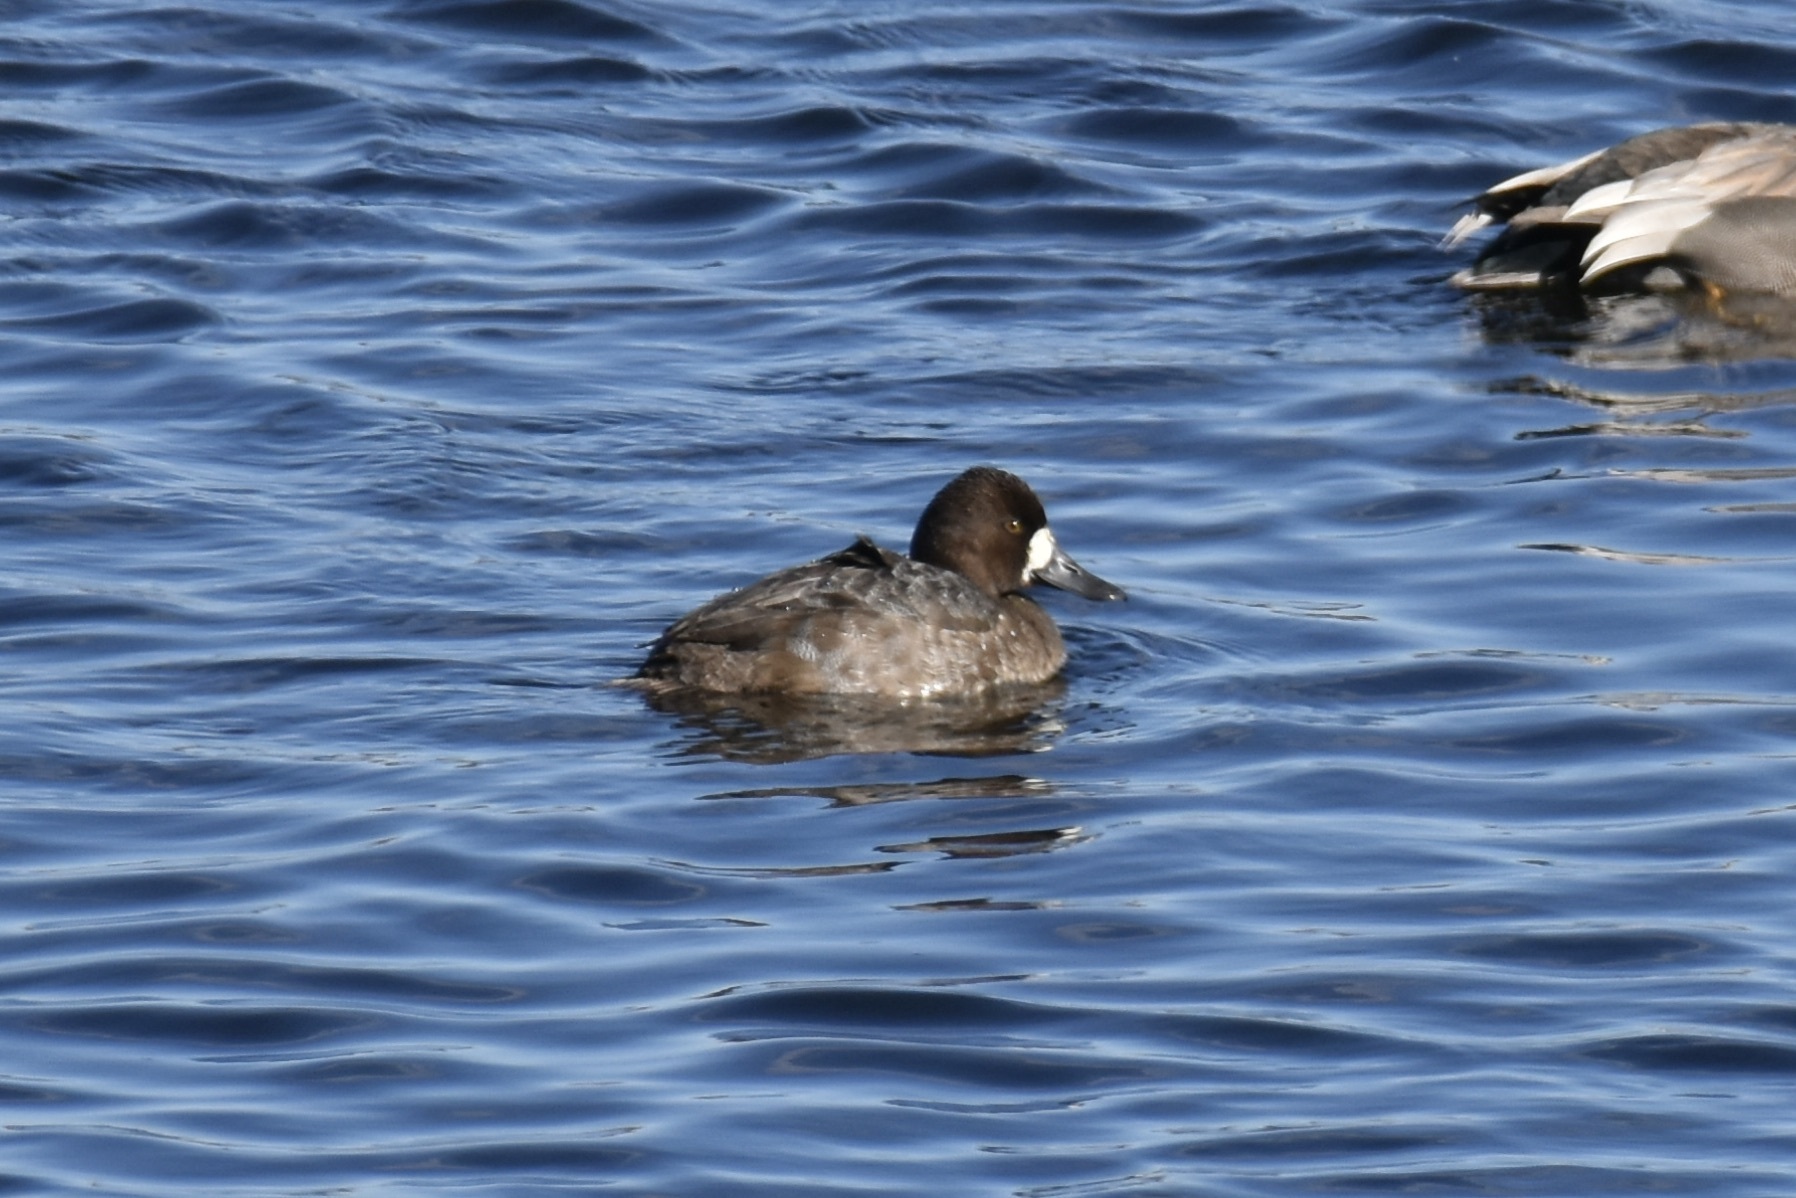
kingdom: Animalia
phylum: Chordata
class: Aves
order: Anseriformes
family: Anatidae
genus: Aythya
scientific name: Aythya affinis
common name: Lesser scaup
